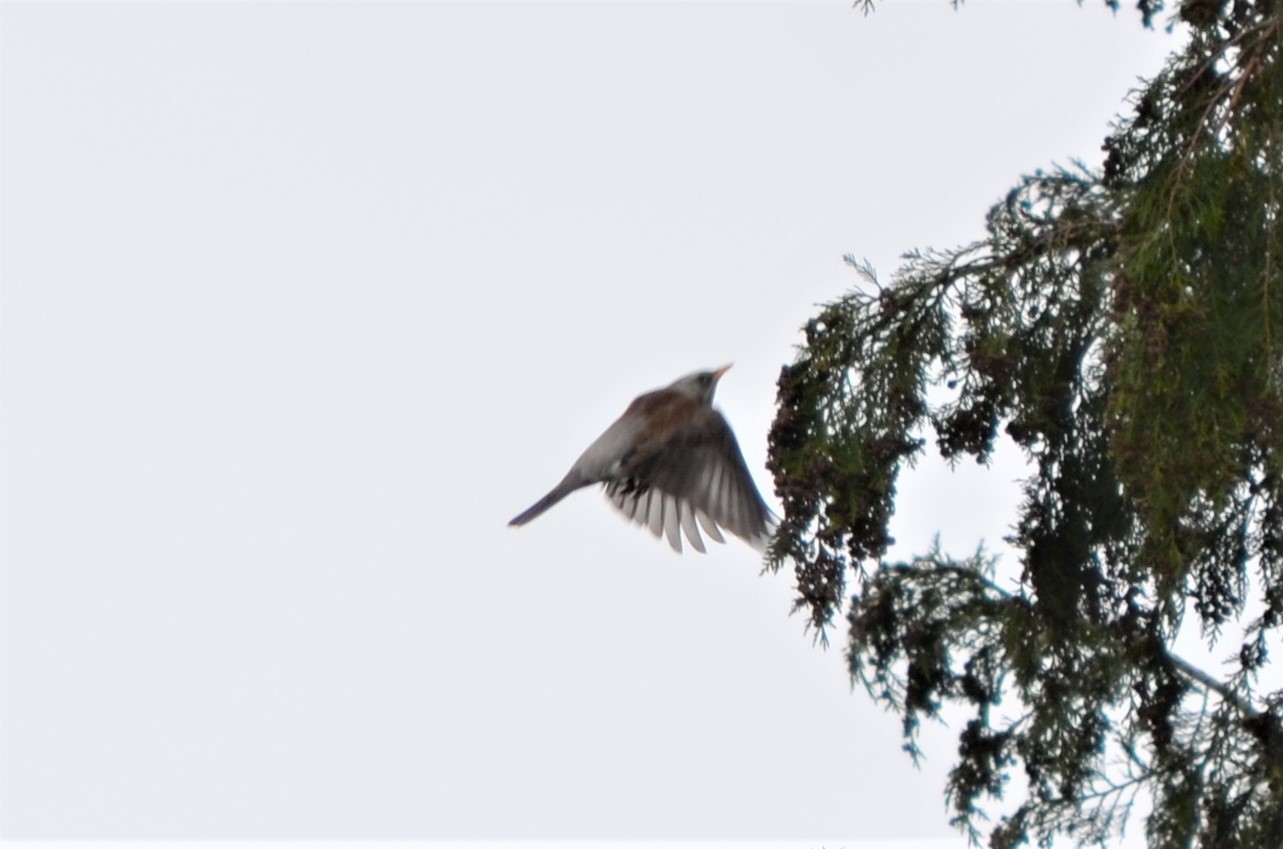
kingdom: Animalia
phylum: Chordata
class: Aves
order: Passeriformes
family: Turdidae
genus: Turdus
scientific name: Turdus pilaris
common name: Fieldfare
